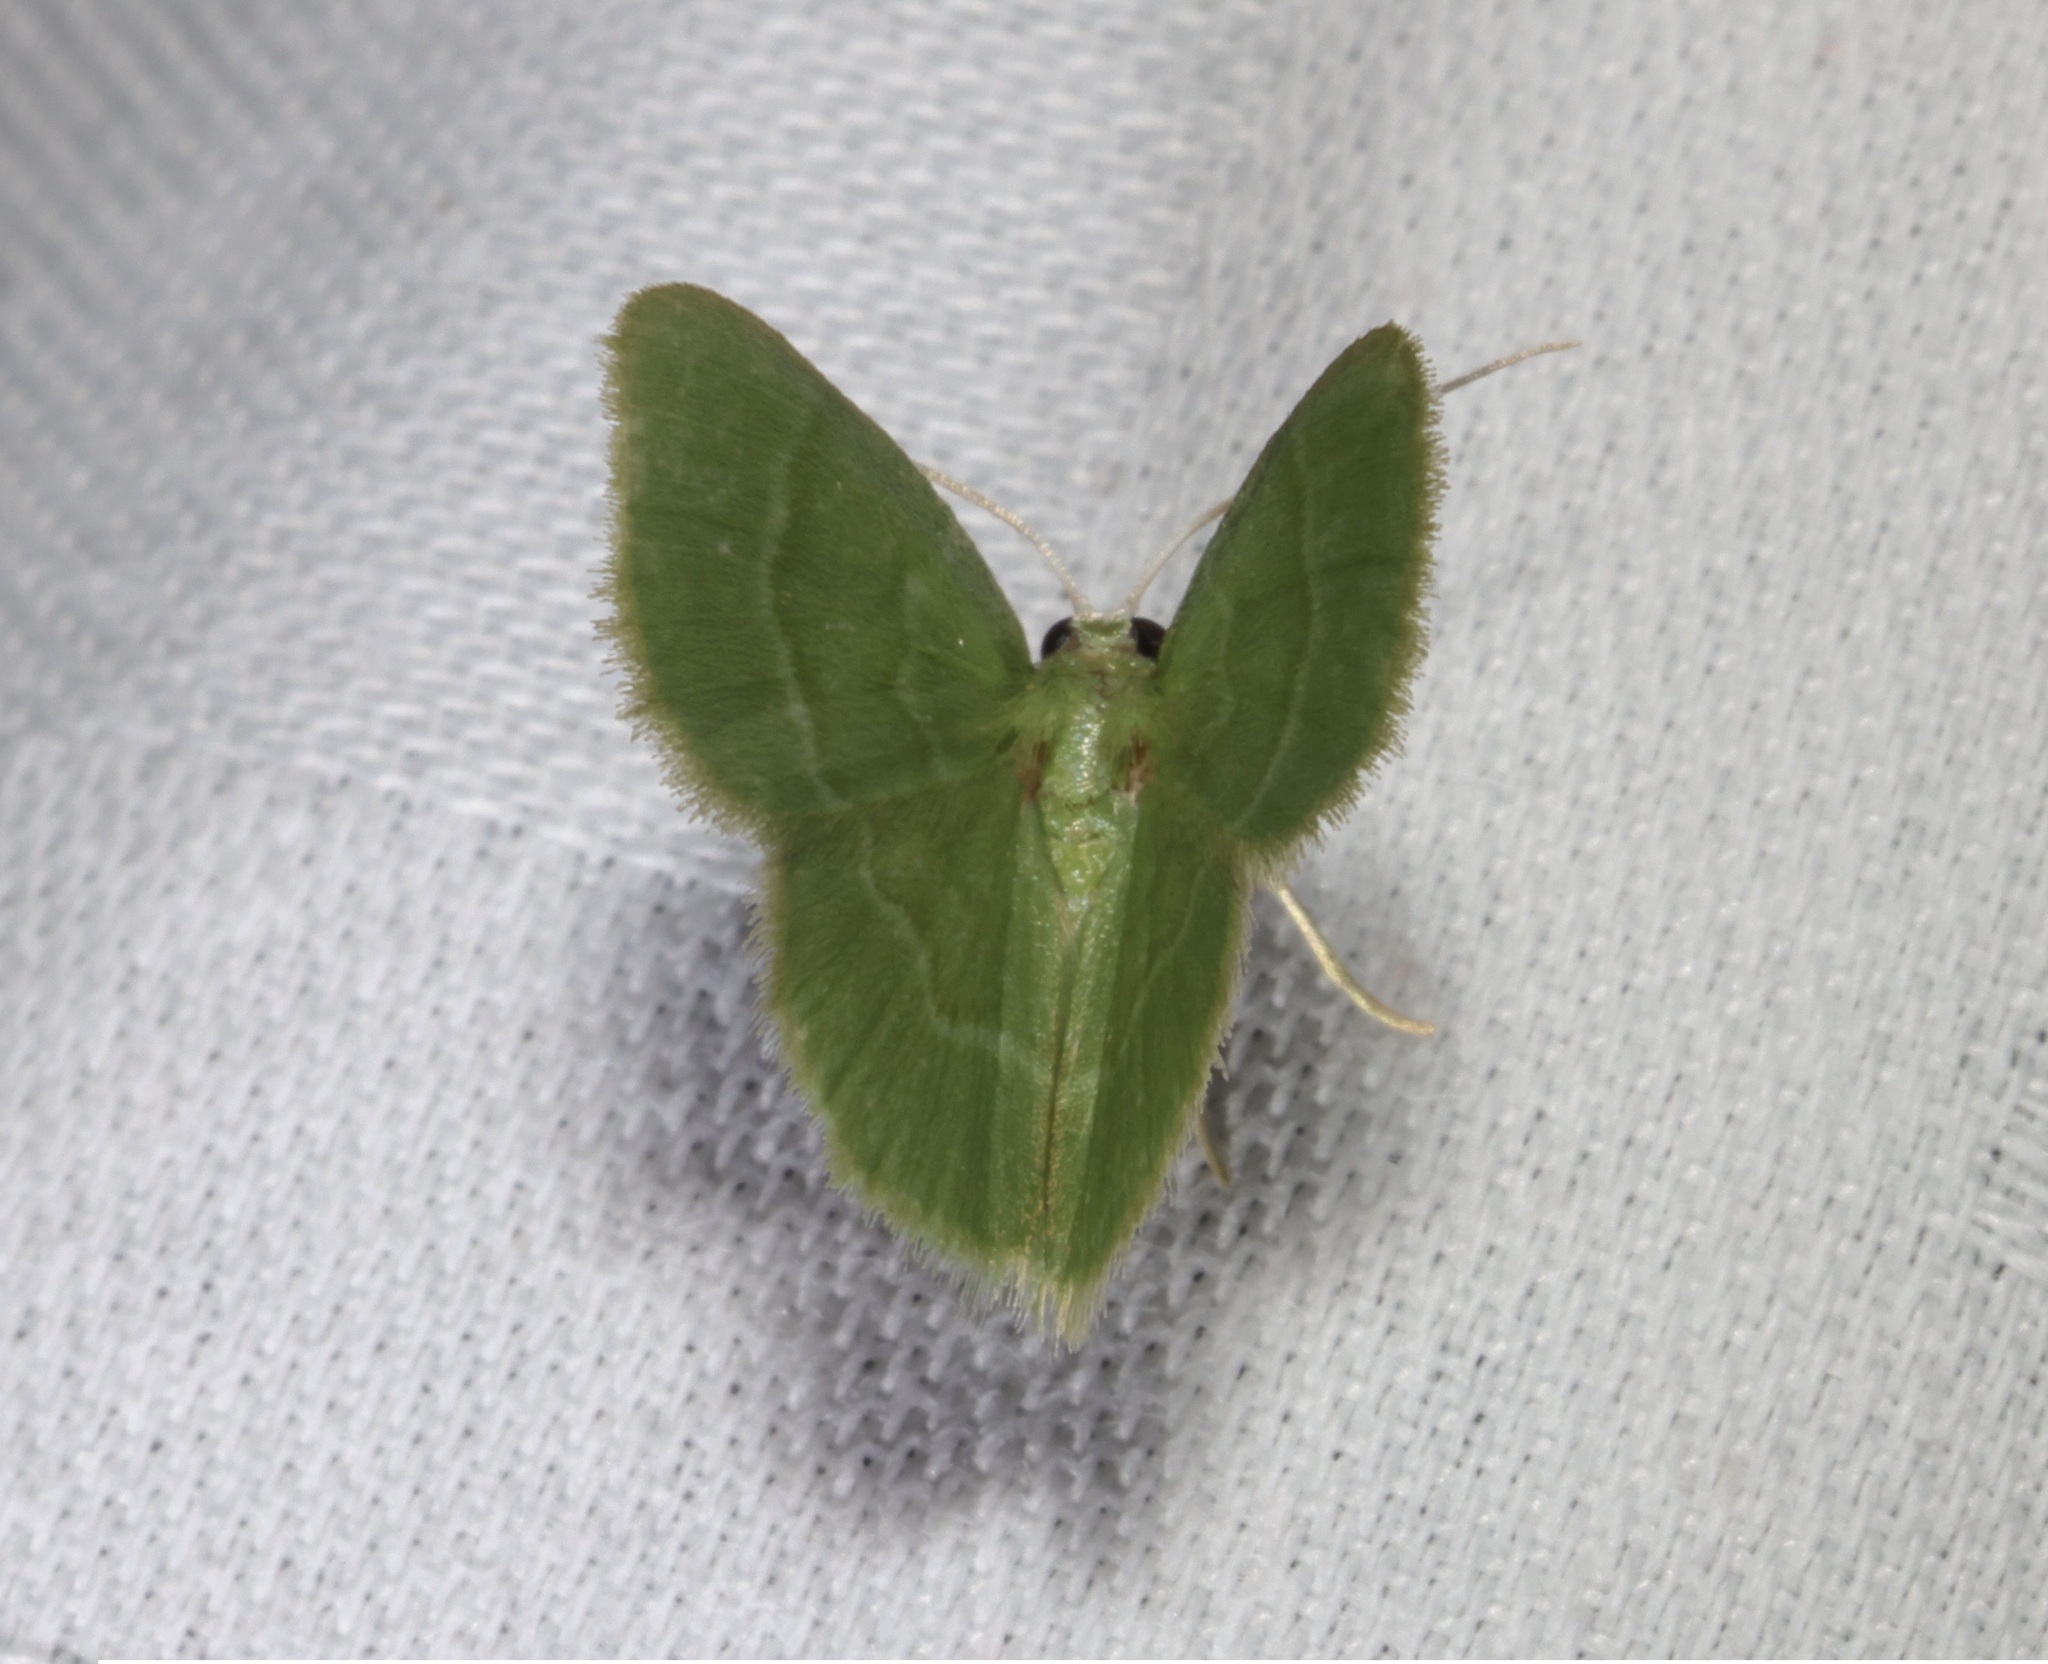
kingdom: Animalia
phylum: Arthropoda
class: Insecta
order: Lepidoptera
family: Geometridae
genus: Idiochlora
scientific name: Idiochlora minuscula
